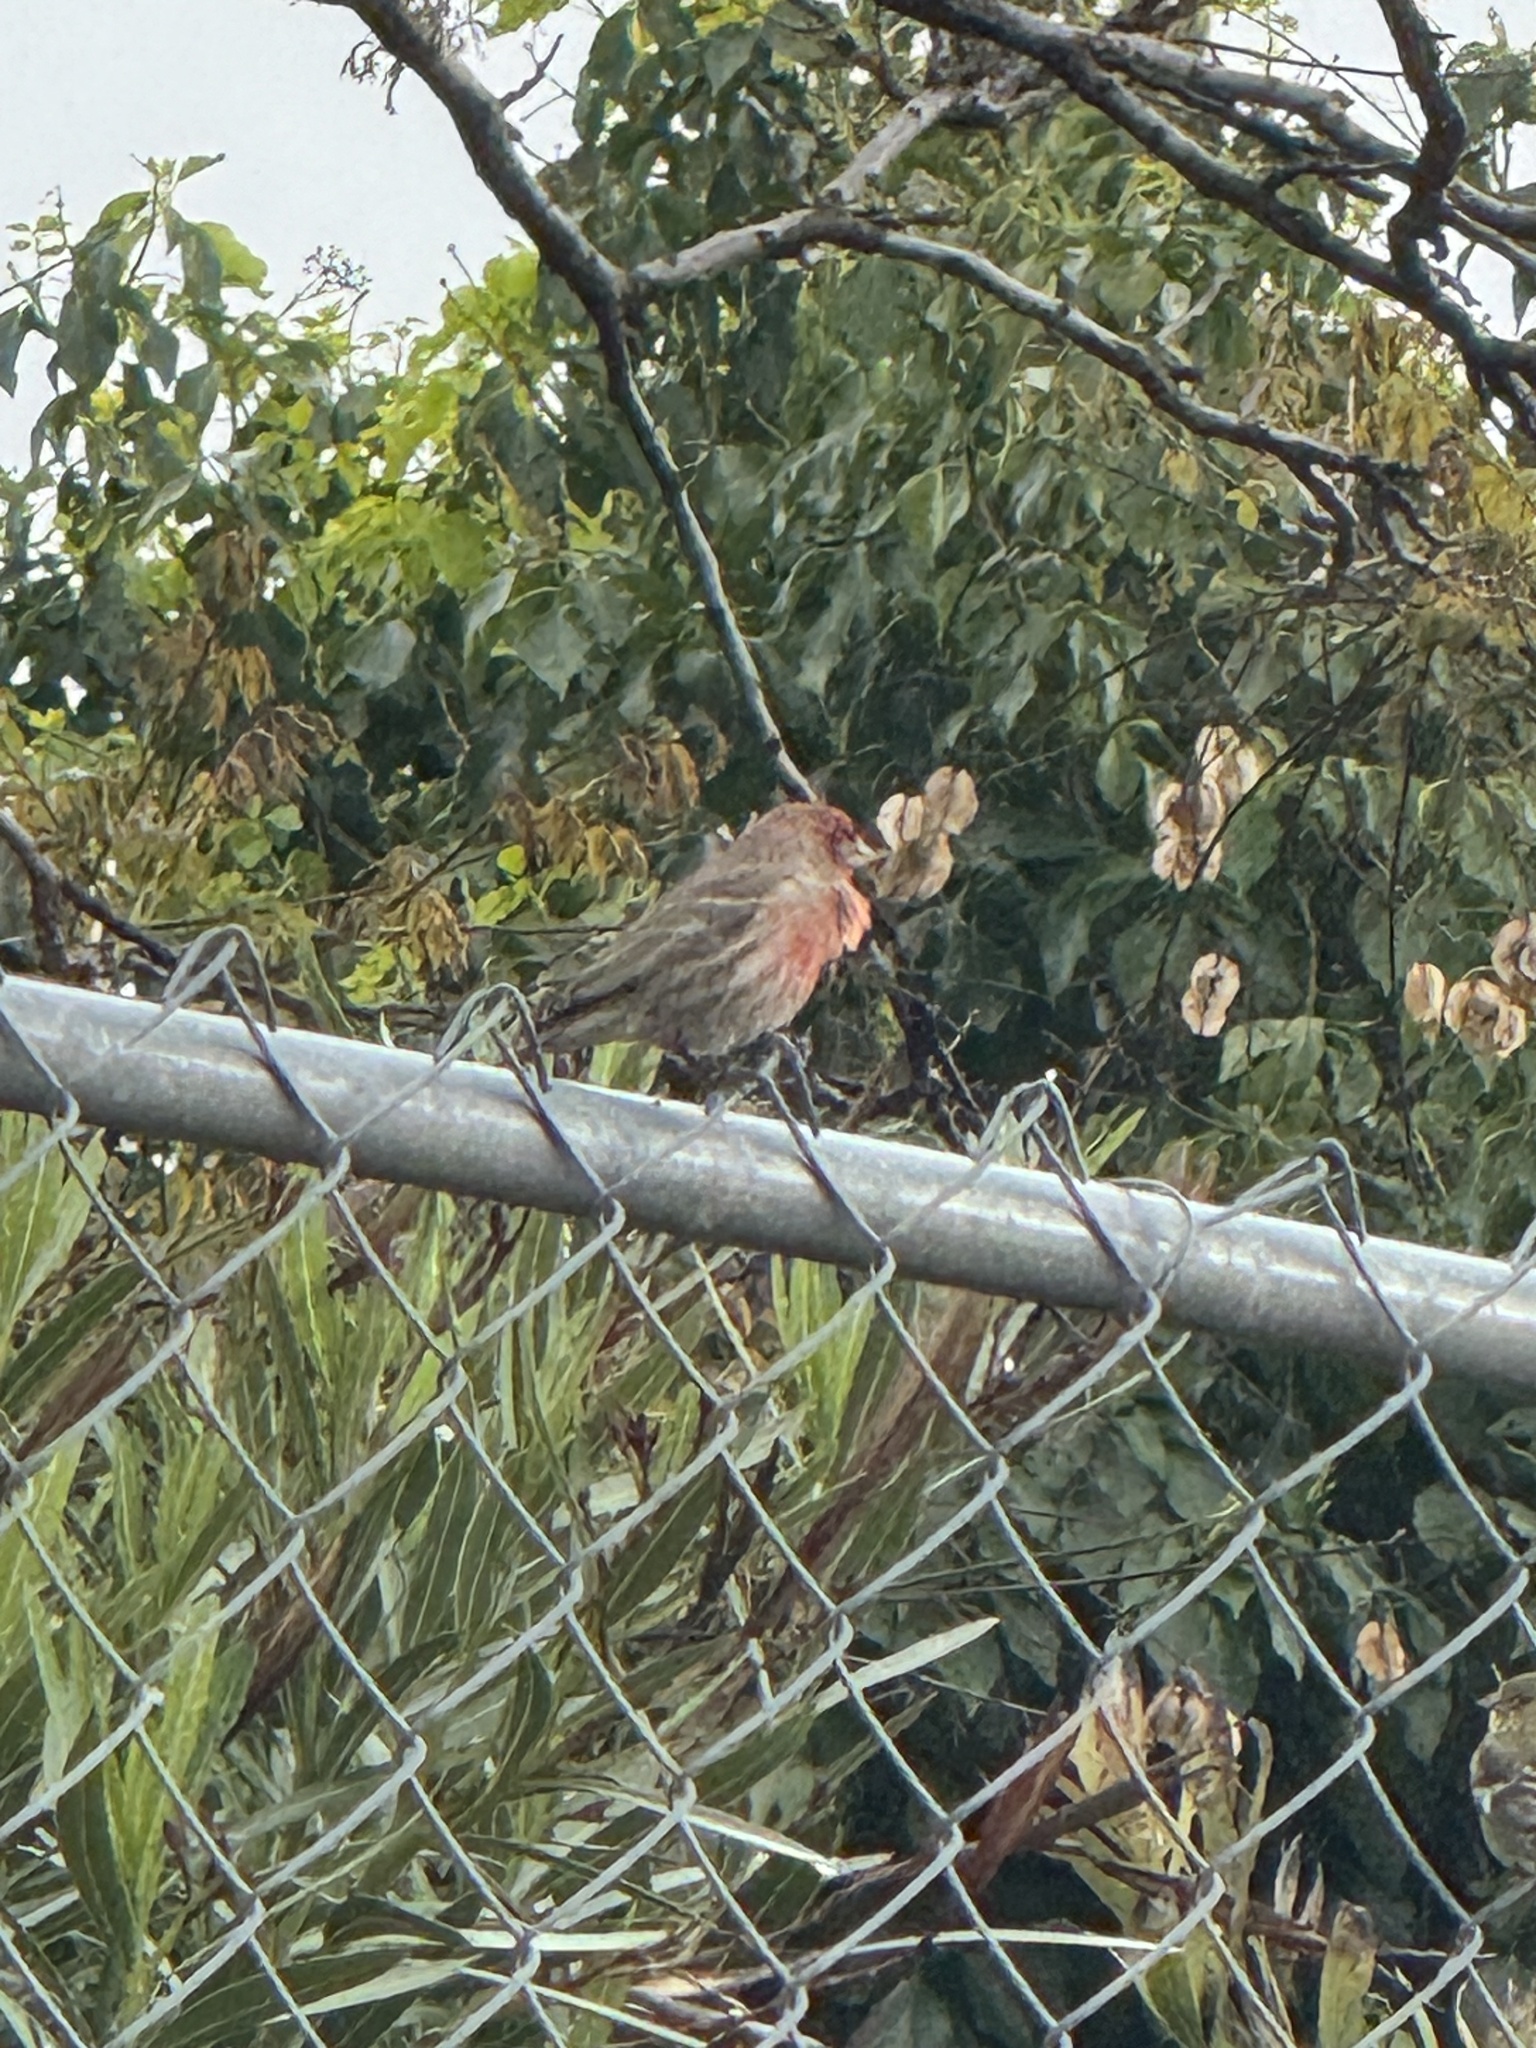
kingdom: Animalia
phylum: Chordata
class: Aves
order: Passeriformes
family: Fringillidae
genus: Haemorhous
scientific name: Haemorhous mexicanus
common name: House finch
